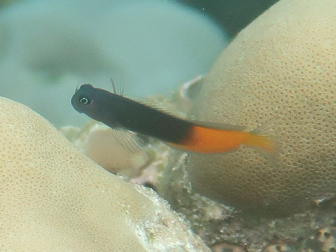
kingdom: Animalia
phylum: Chordata
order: Perciformes
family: Blenniidae
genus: Ecsenius
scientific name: Ecsenius bicolor
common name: Bicolor blenny
